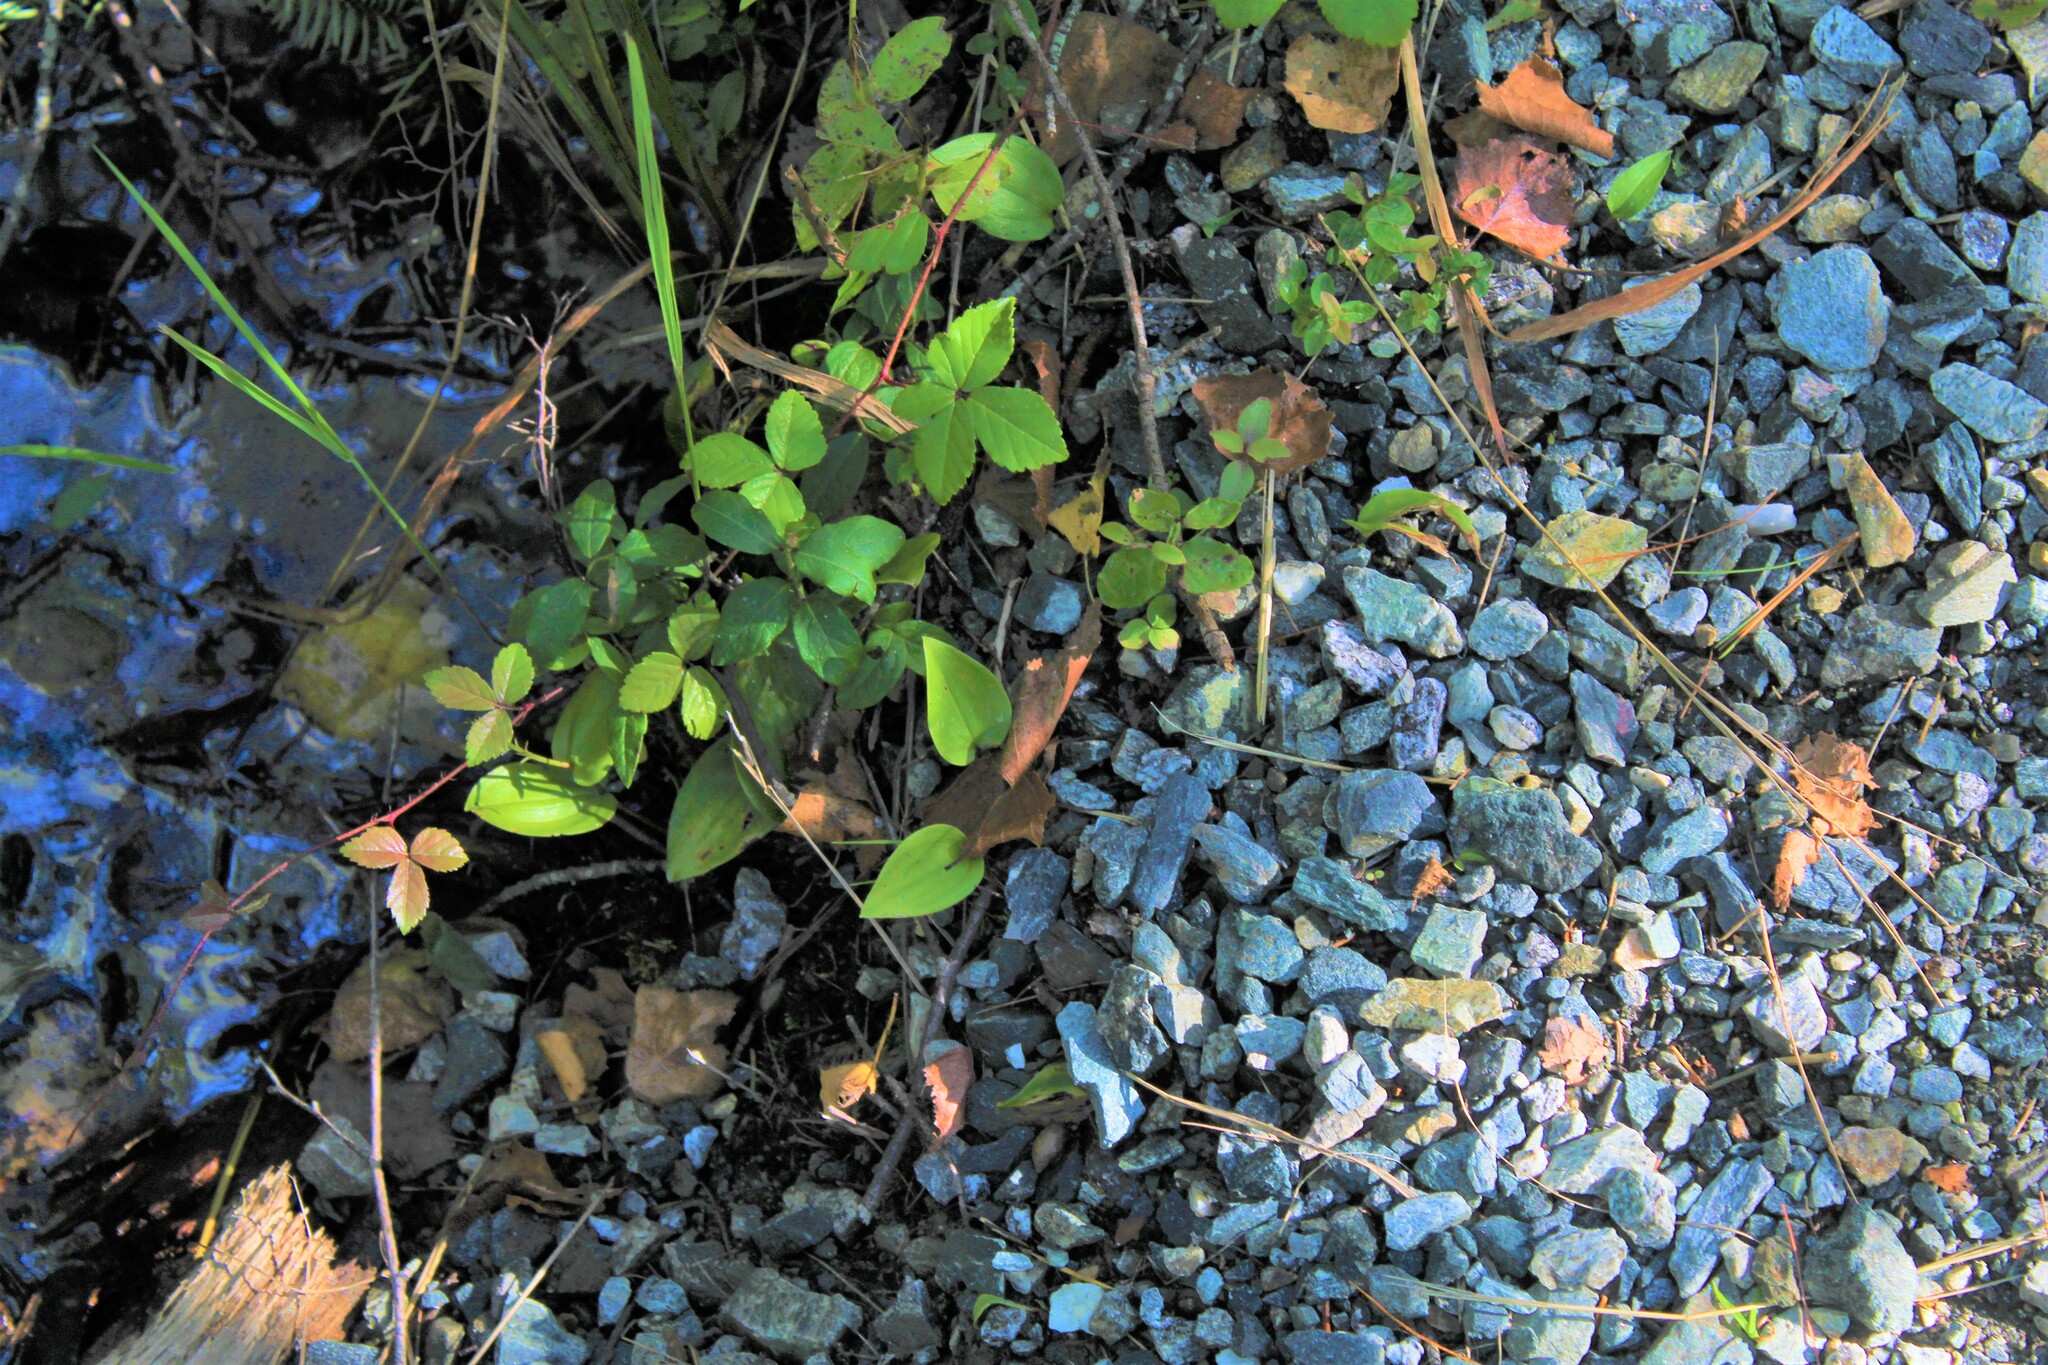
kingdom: Plantae
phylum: Tracheophyta
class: Liliopsida
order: Asparagales
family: Asparagaceae
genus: Maianthemum
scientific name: Maianthemum canadense
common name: False lily-of-the-valley
